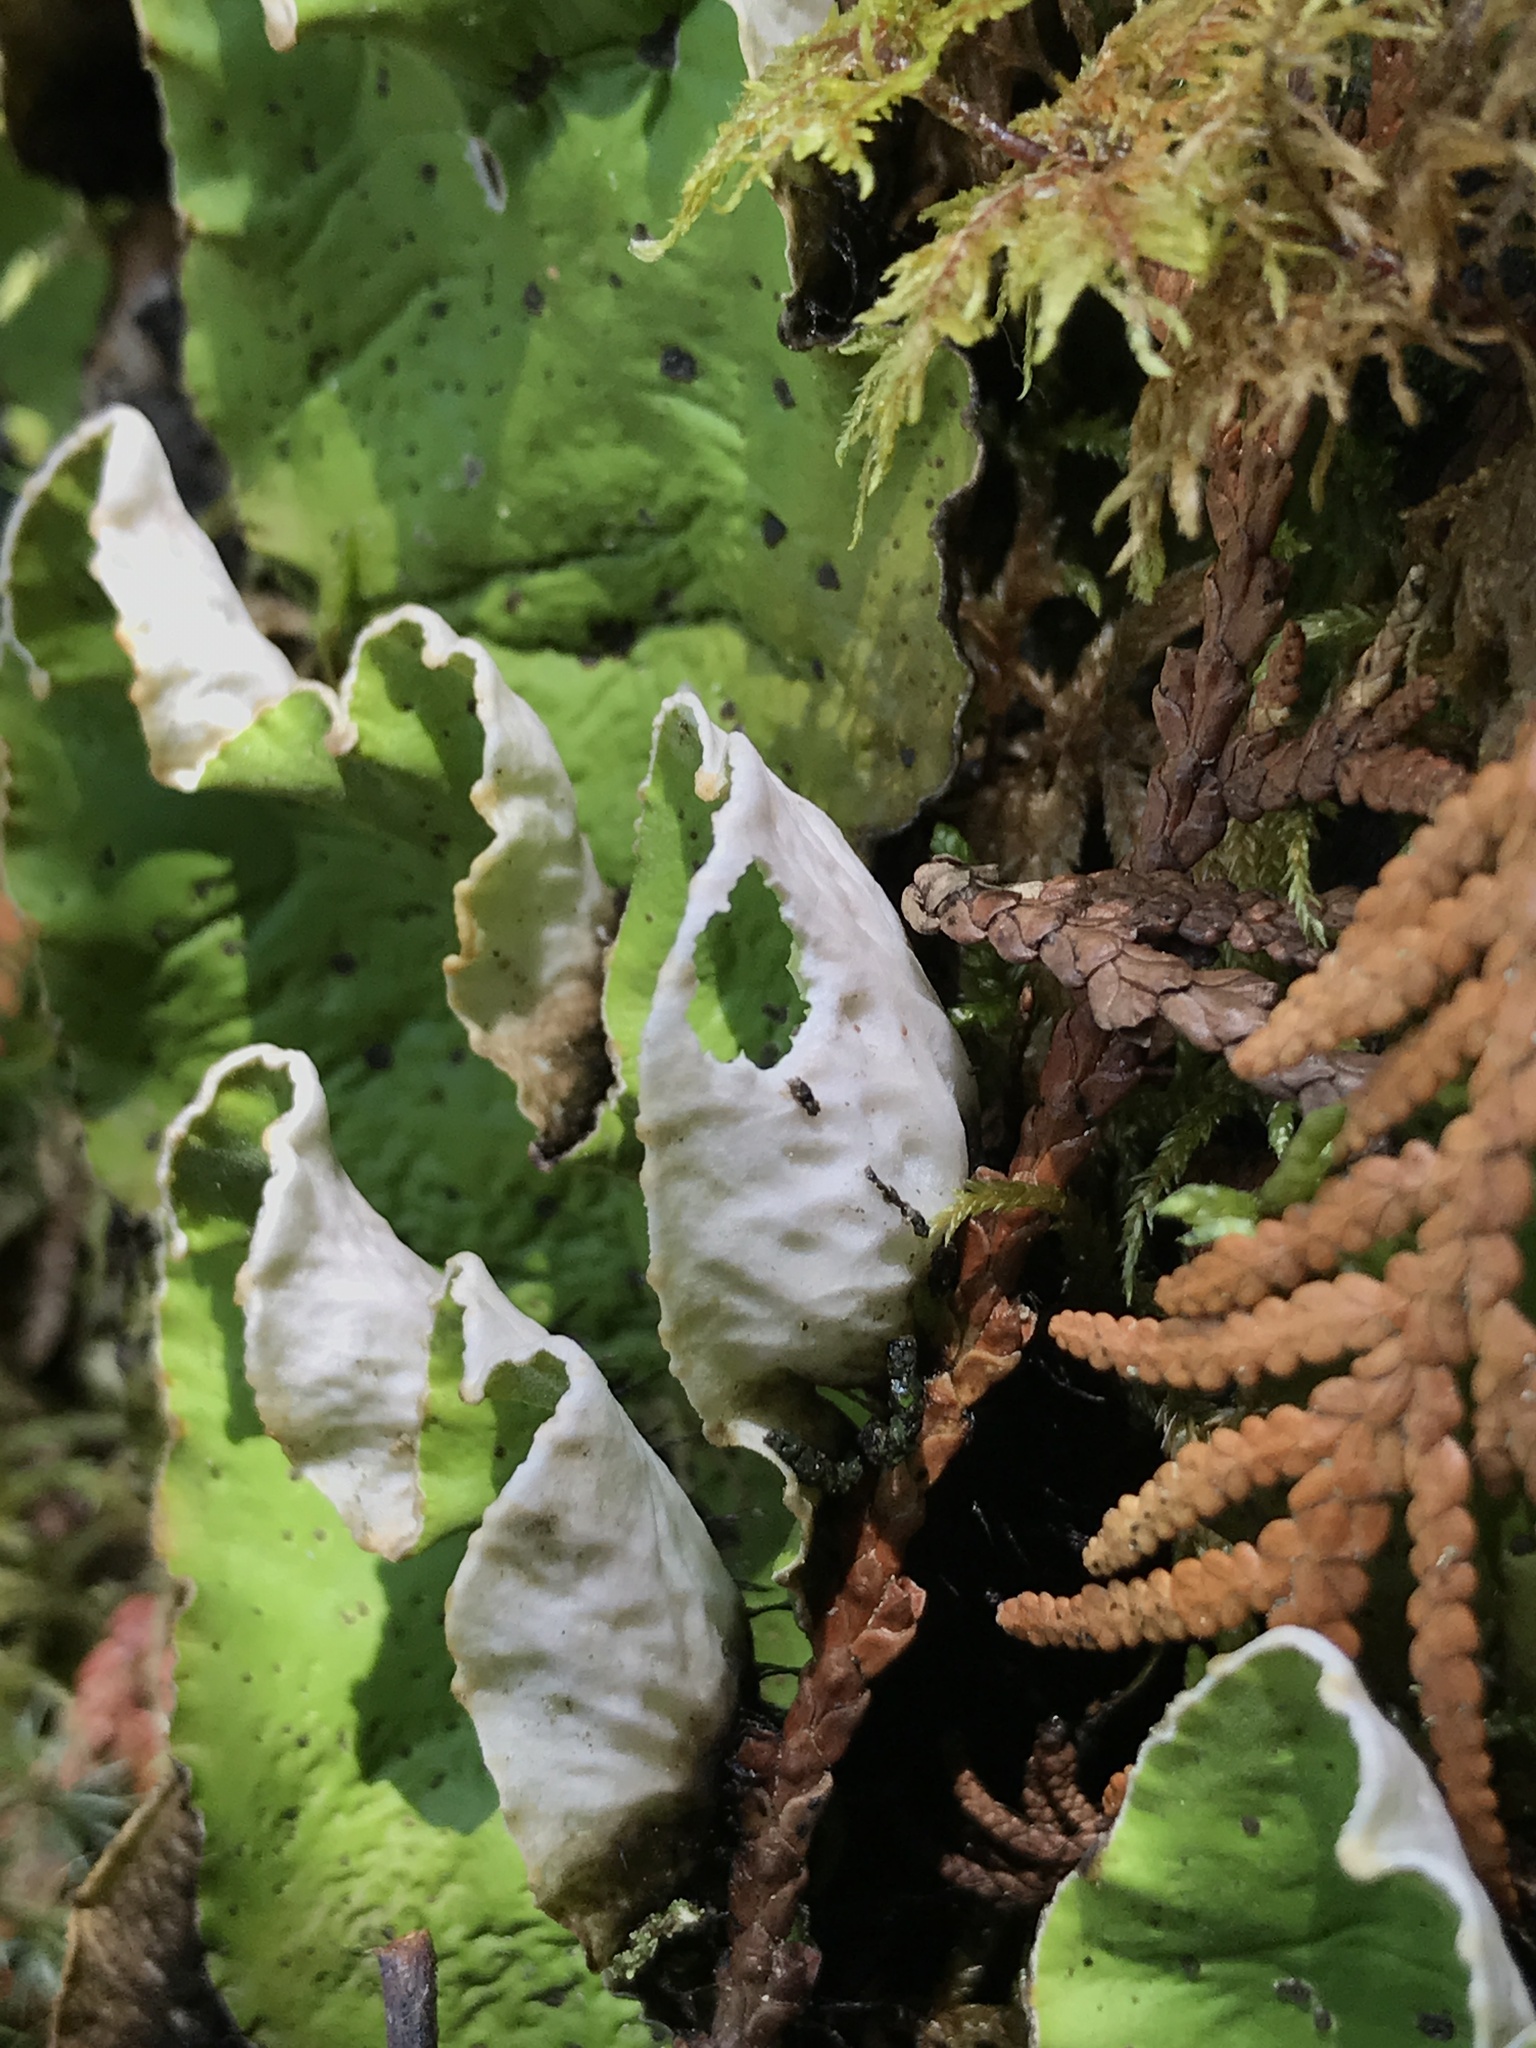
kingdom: Fungi
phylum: Ascomycota
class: Lecanoromycetes
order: Peltigerales
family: Peltigeraceae
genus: Peltigera
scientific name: Peltigera aphthosa
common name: Common freckle pelt lichen
